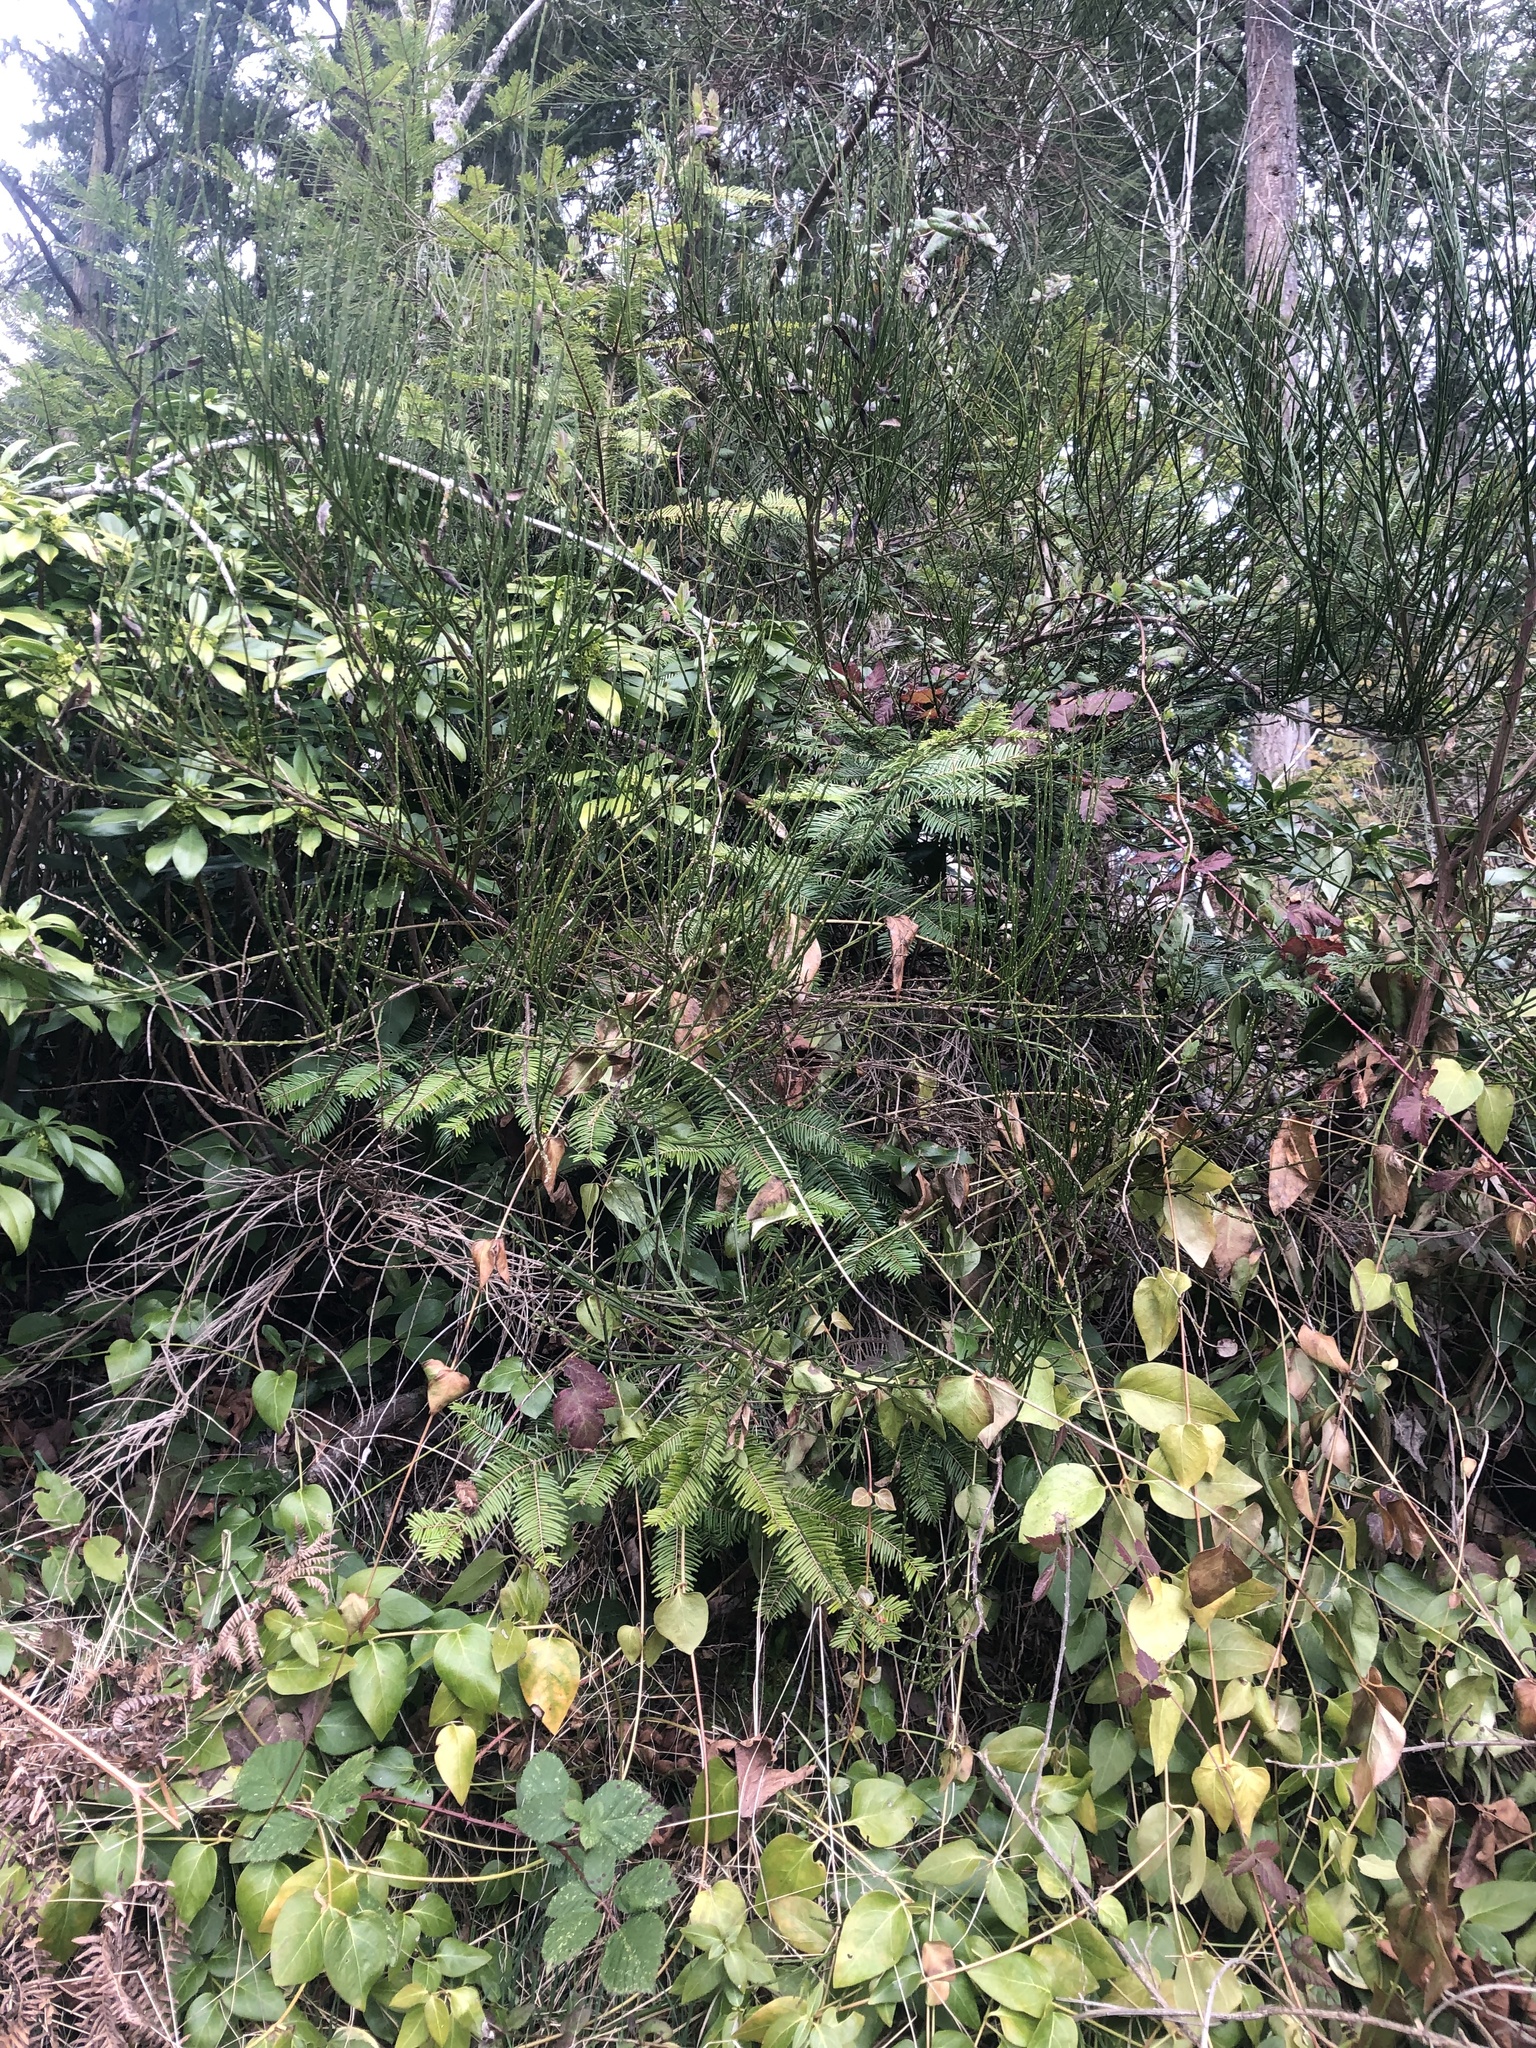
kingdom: Plantae
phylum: Tracheophyta
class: Magnoliopsida
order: Fabales
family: Fabaceae
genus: Cytisus
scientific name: Cytisus scoparius
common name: Scotch broom
